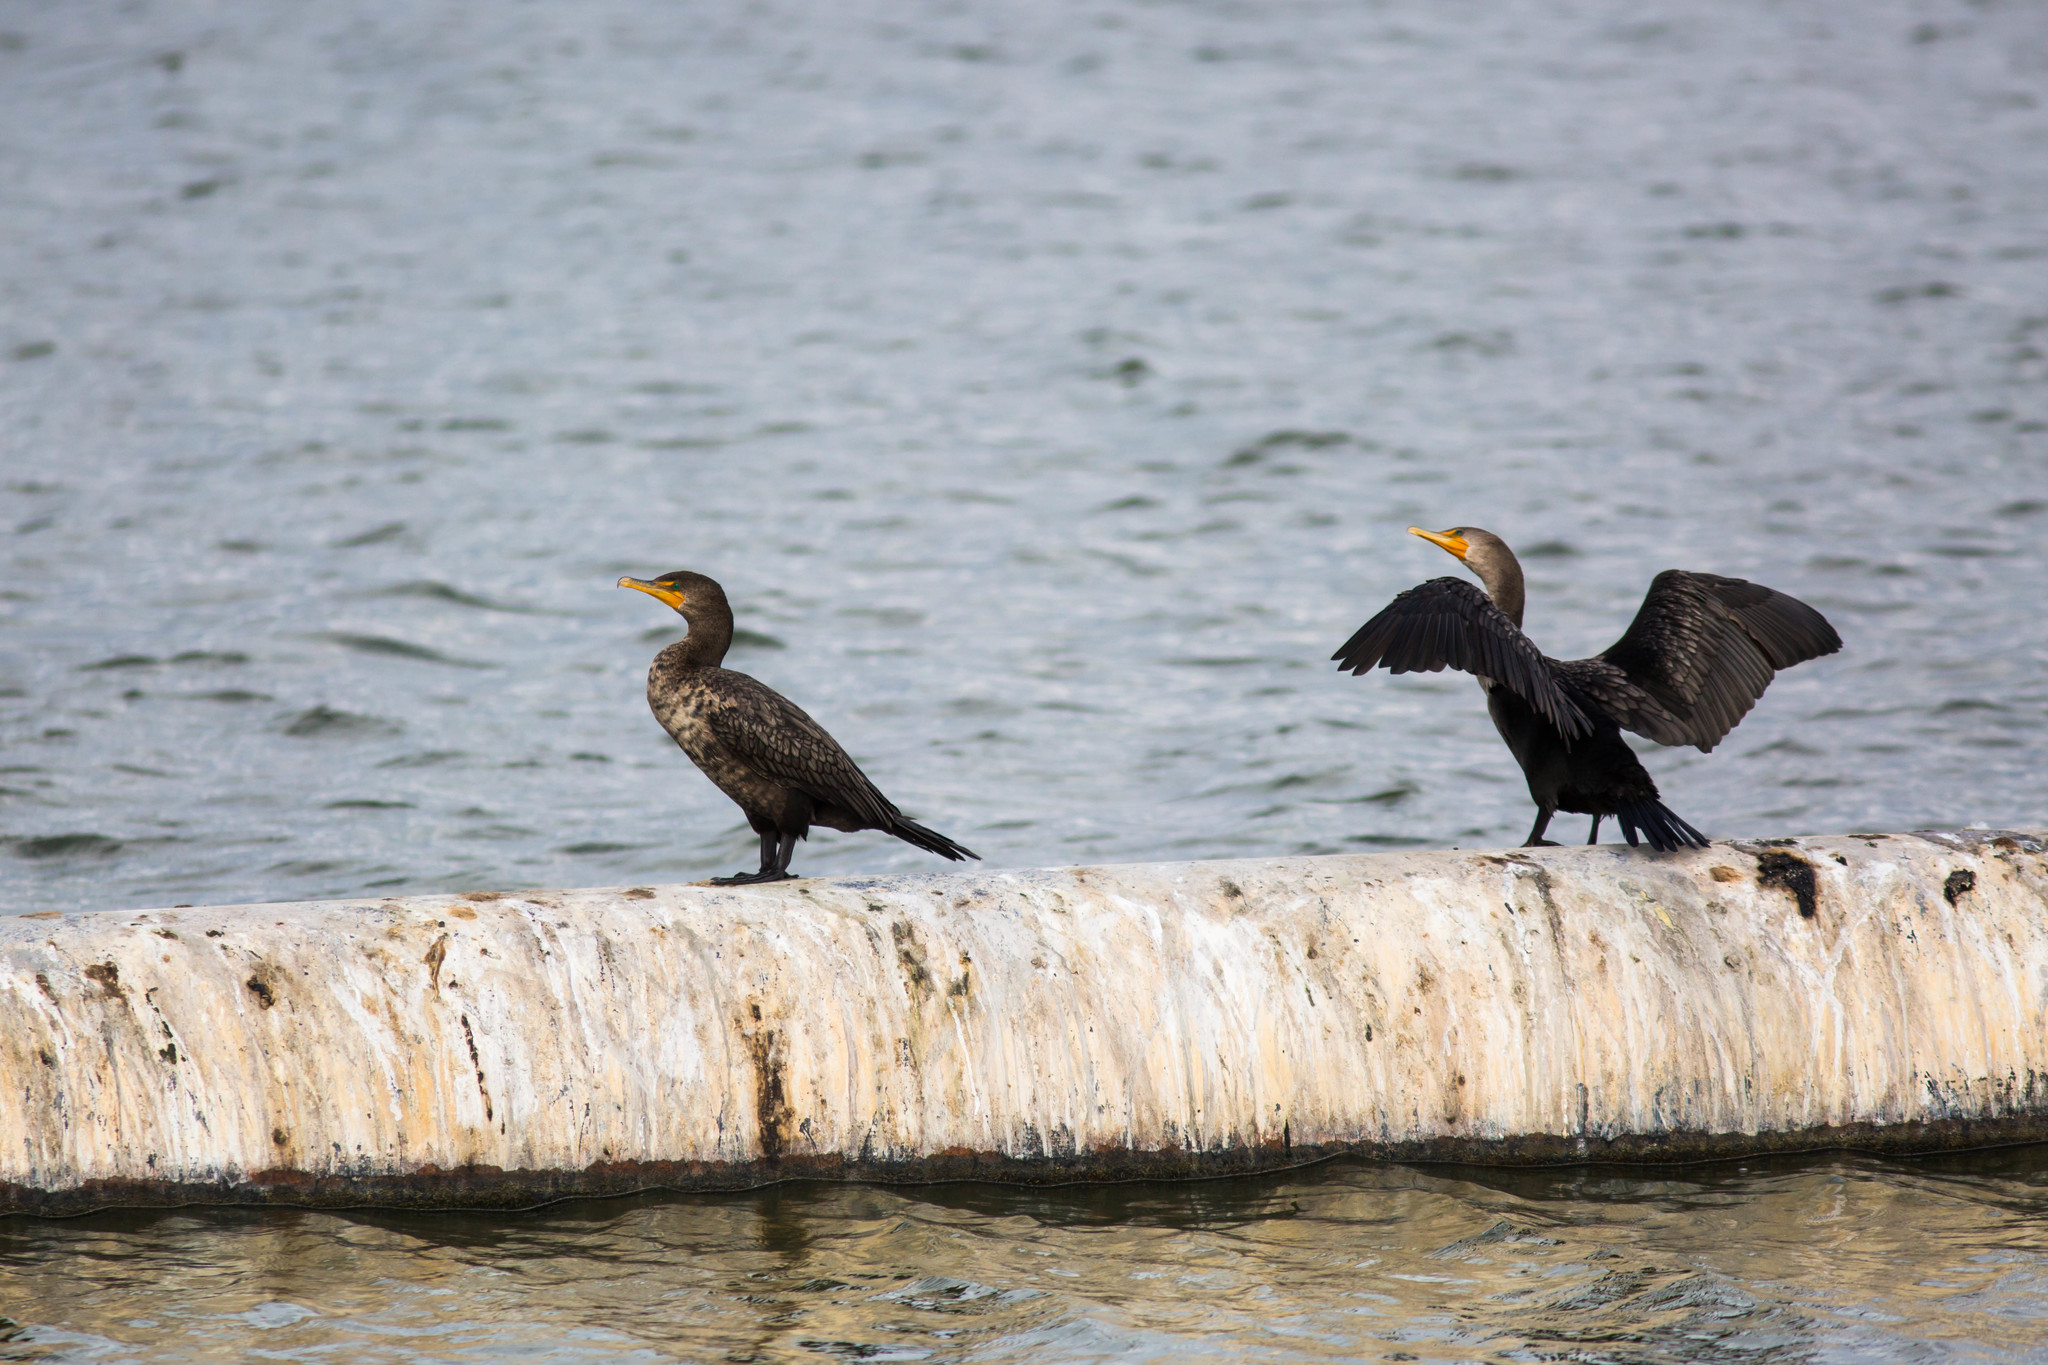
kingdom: Animalia
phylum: Chordata
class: Aves
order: Suliformes
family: Phalacrocoracidae
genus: Phalacrocorax
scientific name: Phalacrocorax auritus
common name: Double-crested cormorant
